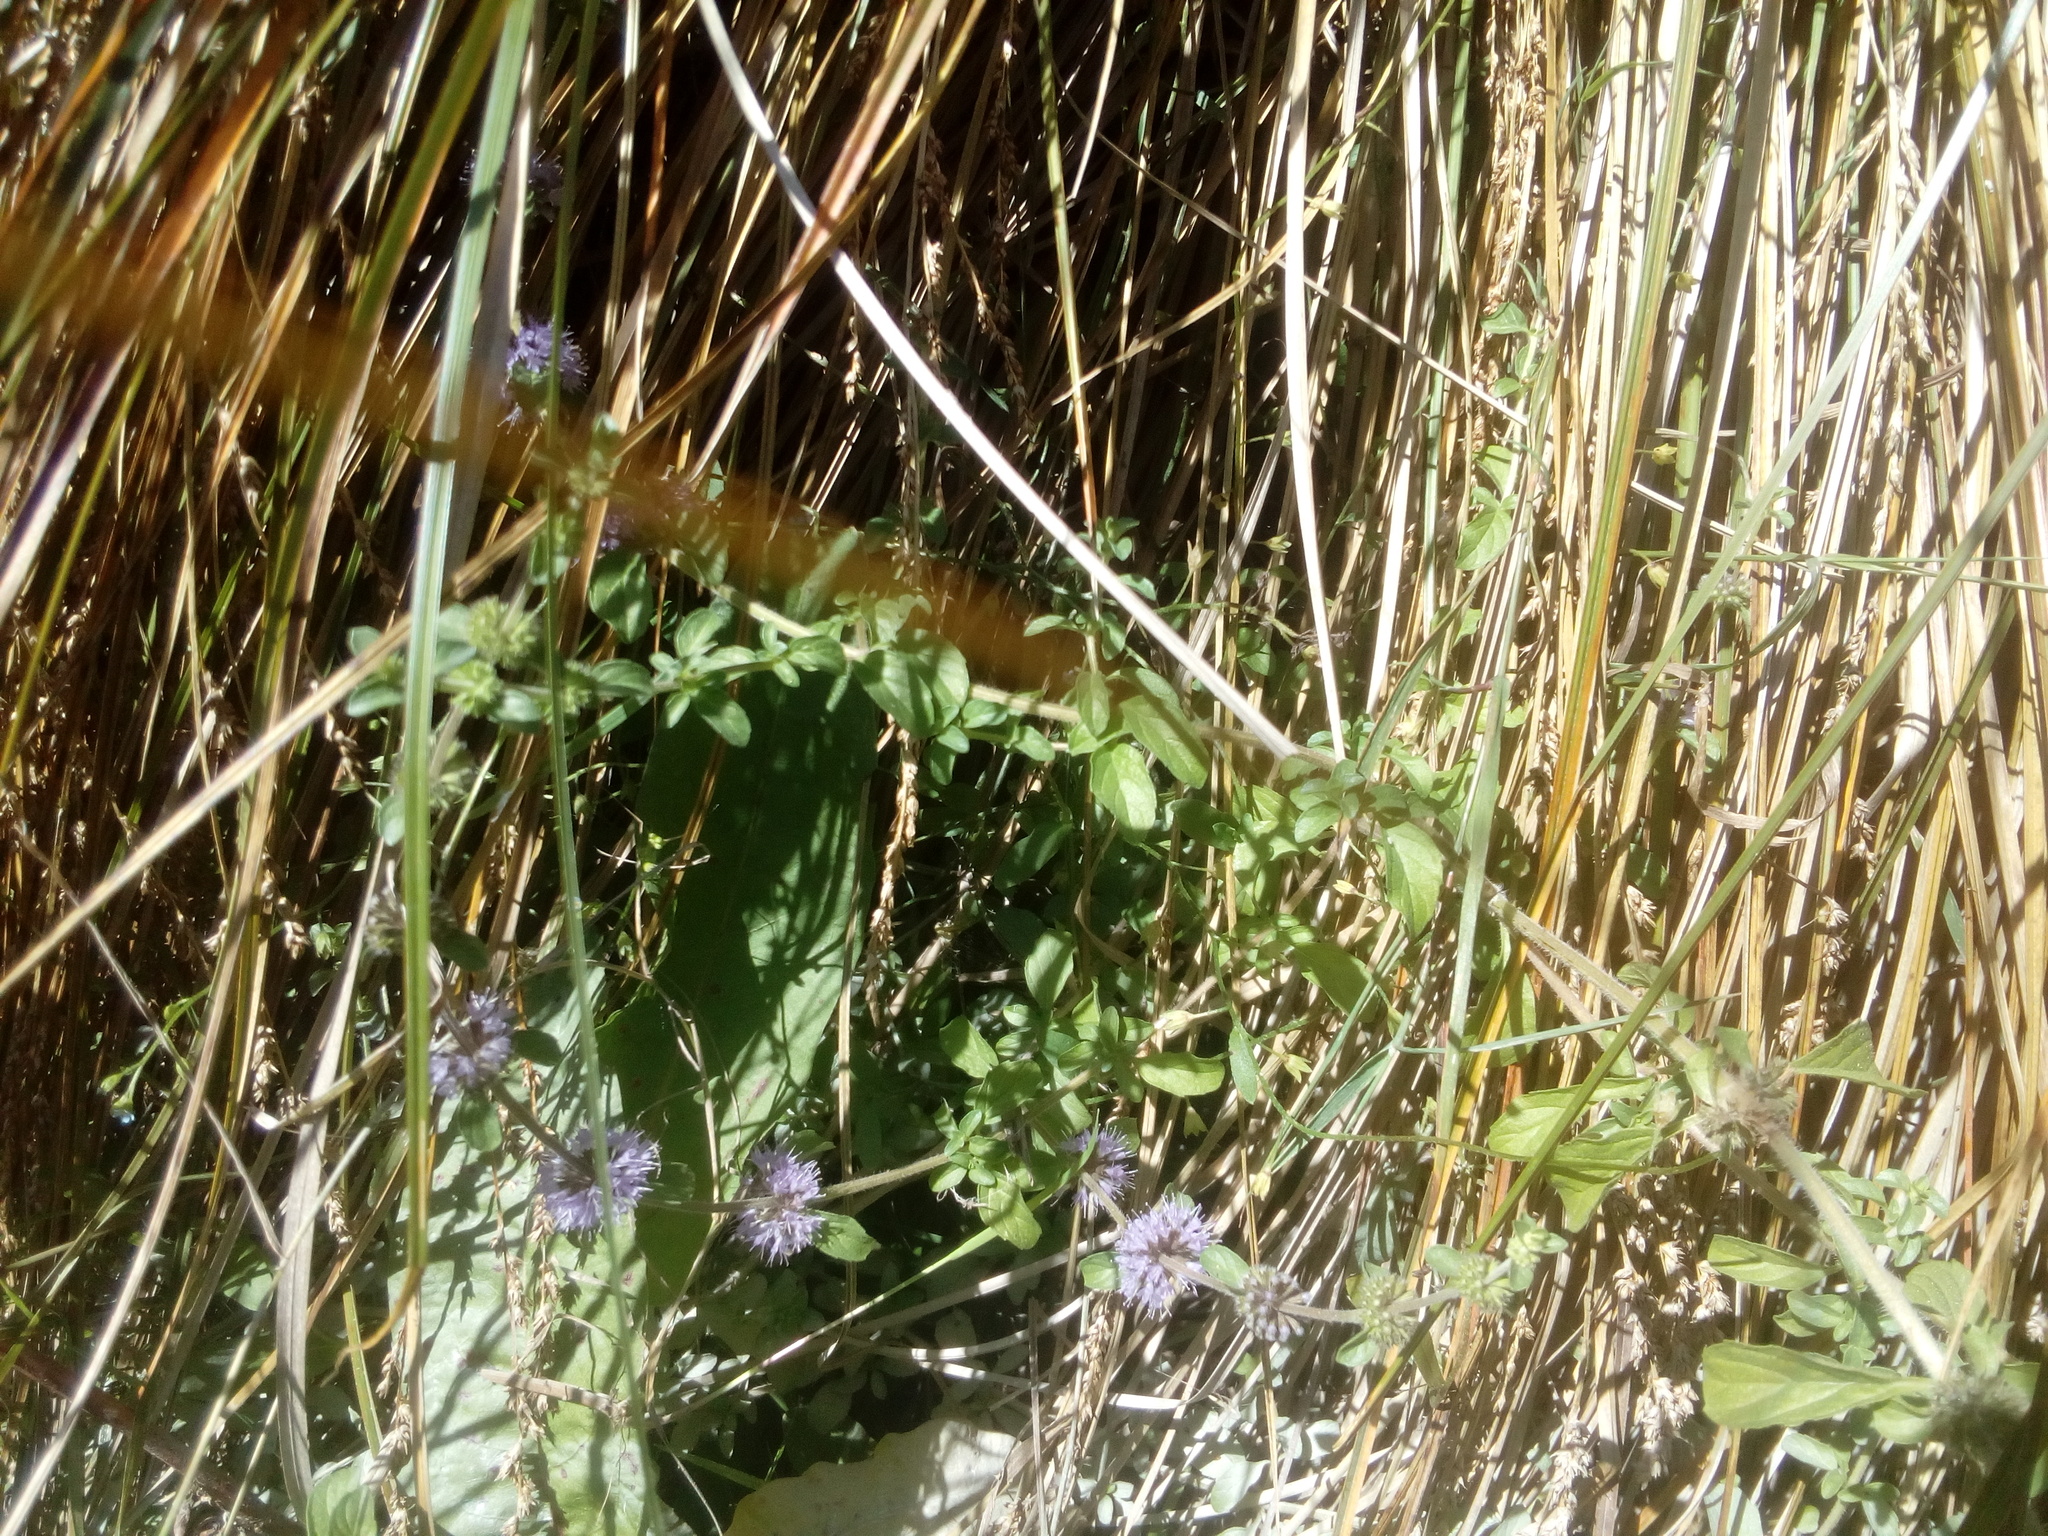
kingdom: Plantae
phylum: Tracheophyta
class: Magnoliopsida
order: Lamiales
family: Lamiaceae
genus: Mentha
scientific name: Mentha pulegium
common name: Pennyroyal
